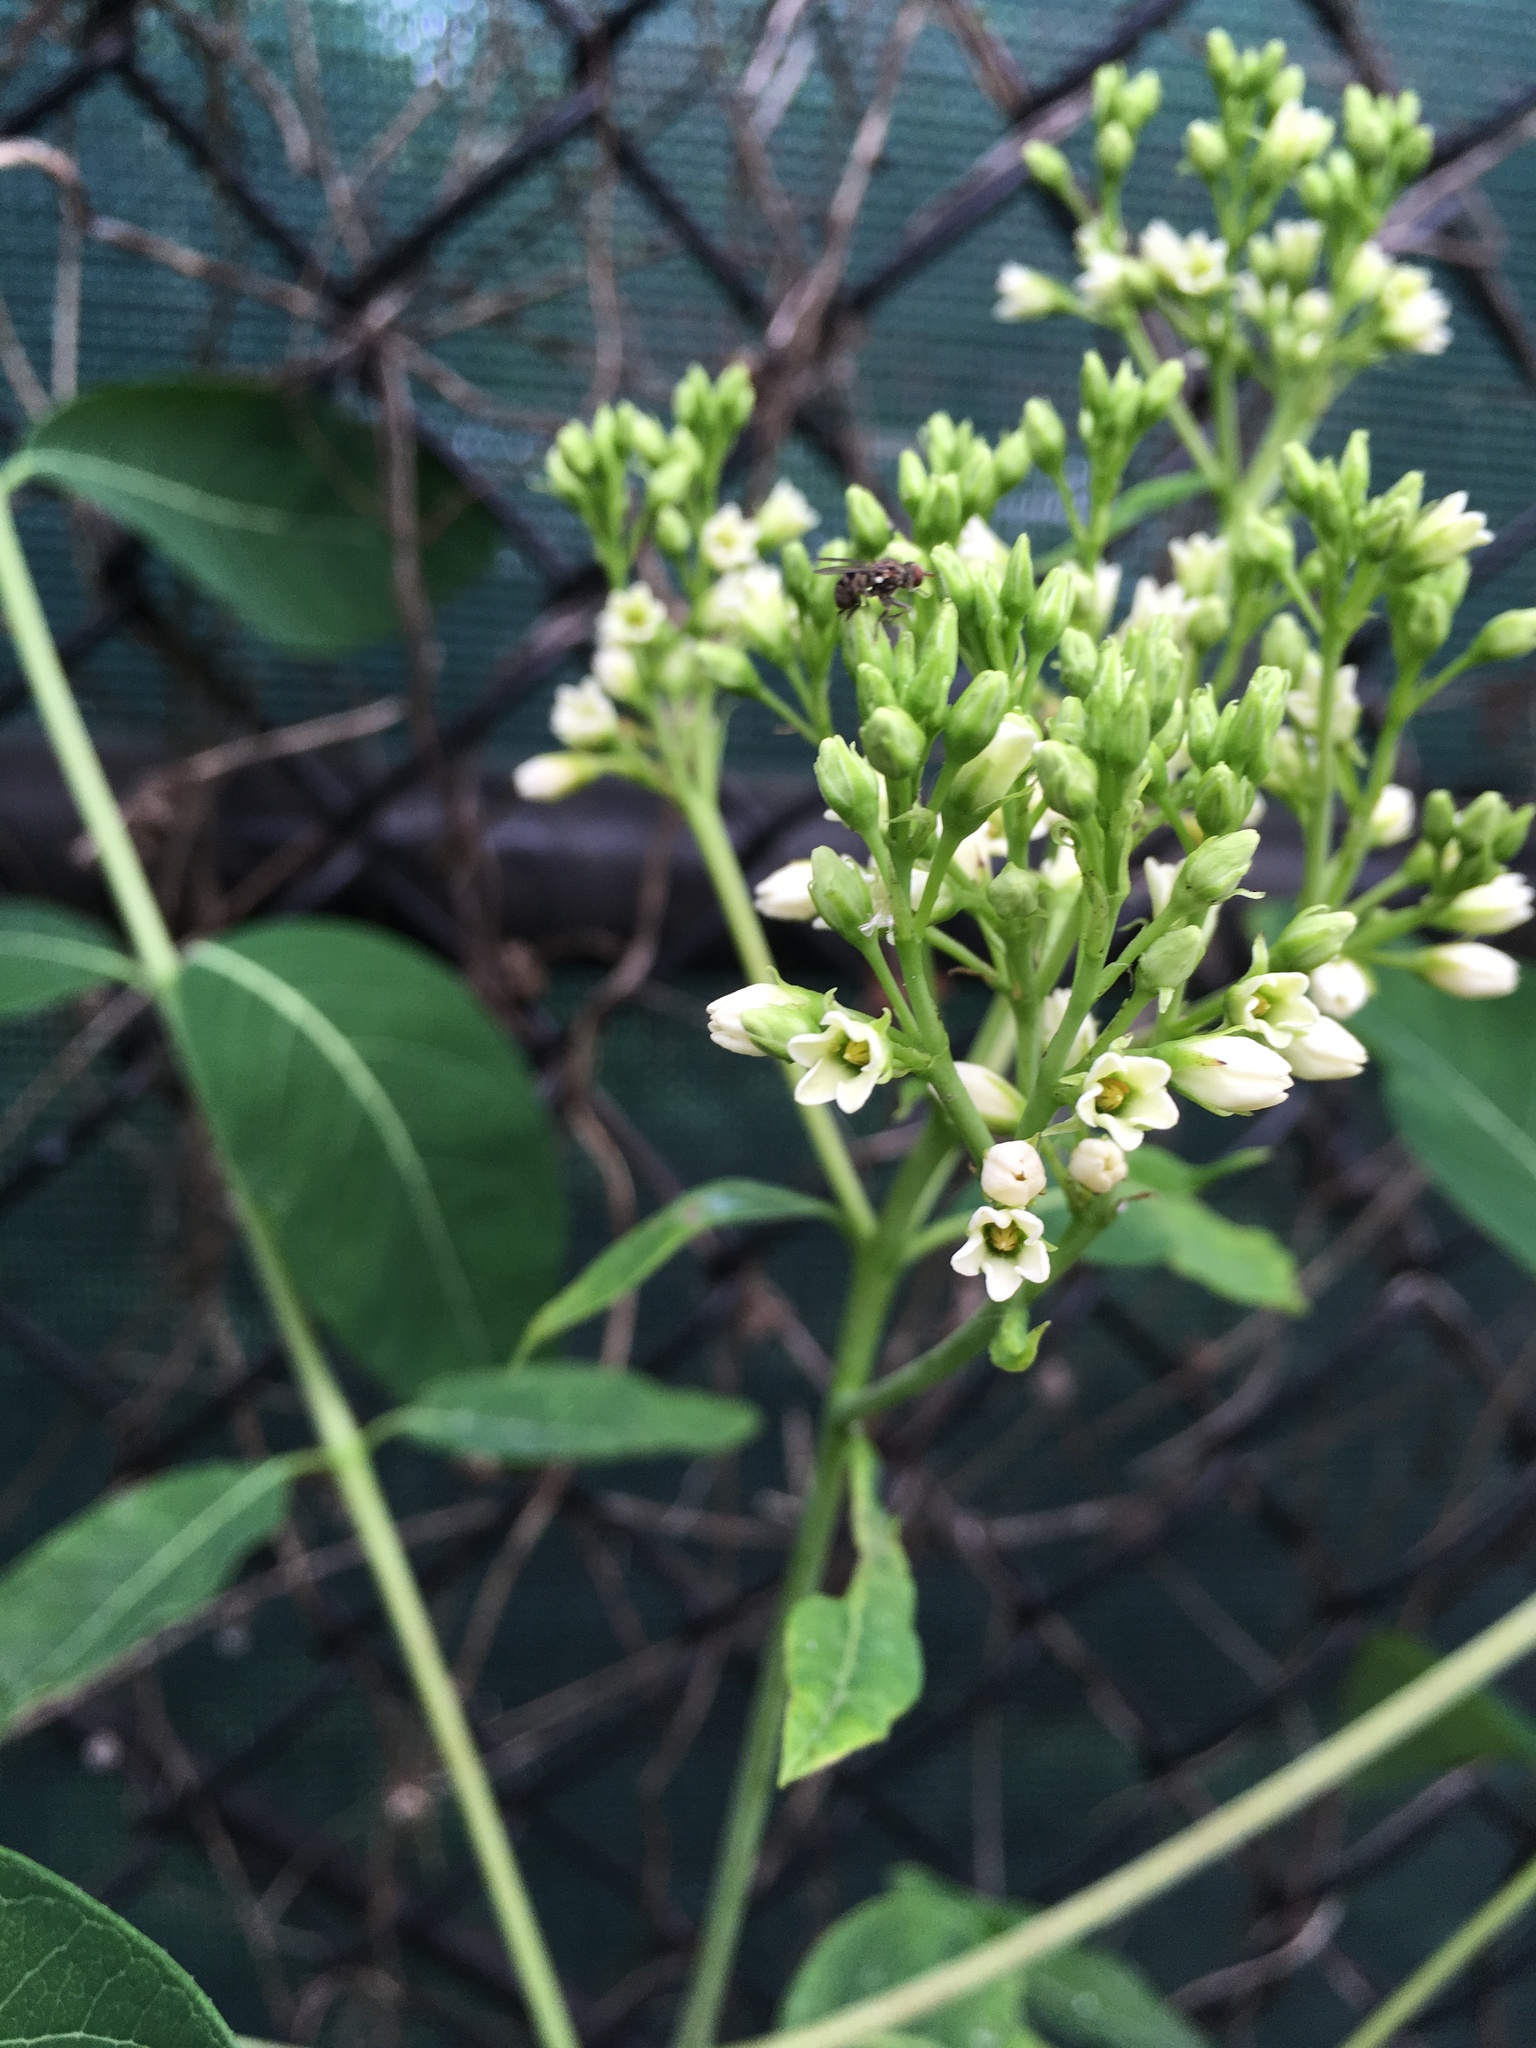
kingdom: Plantae
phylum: Tracheophyta
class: Magnoliopsida
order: Gentianales
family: Apocynaceae
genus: Apocynum
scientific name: Apocynum cannabinum
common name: Hemp dogbane
